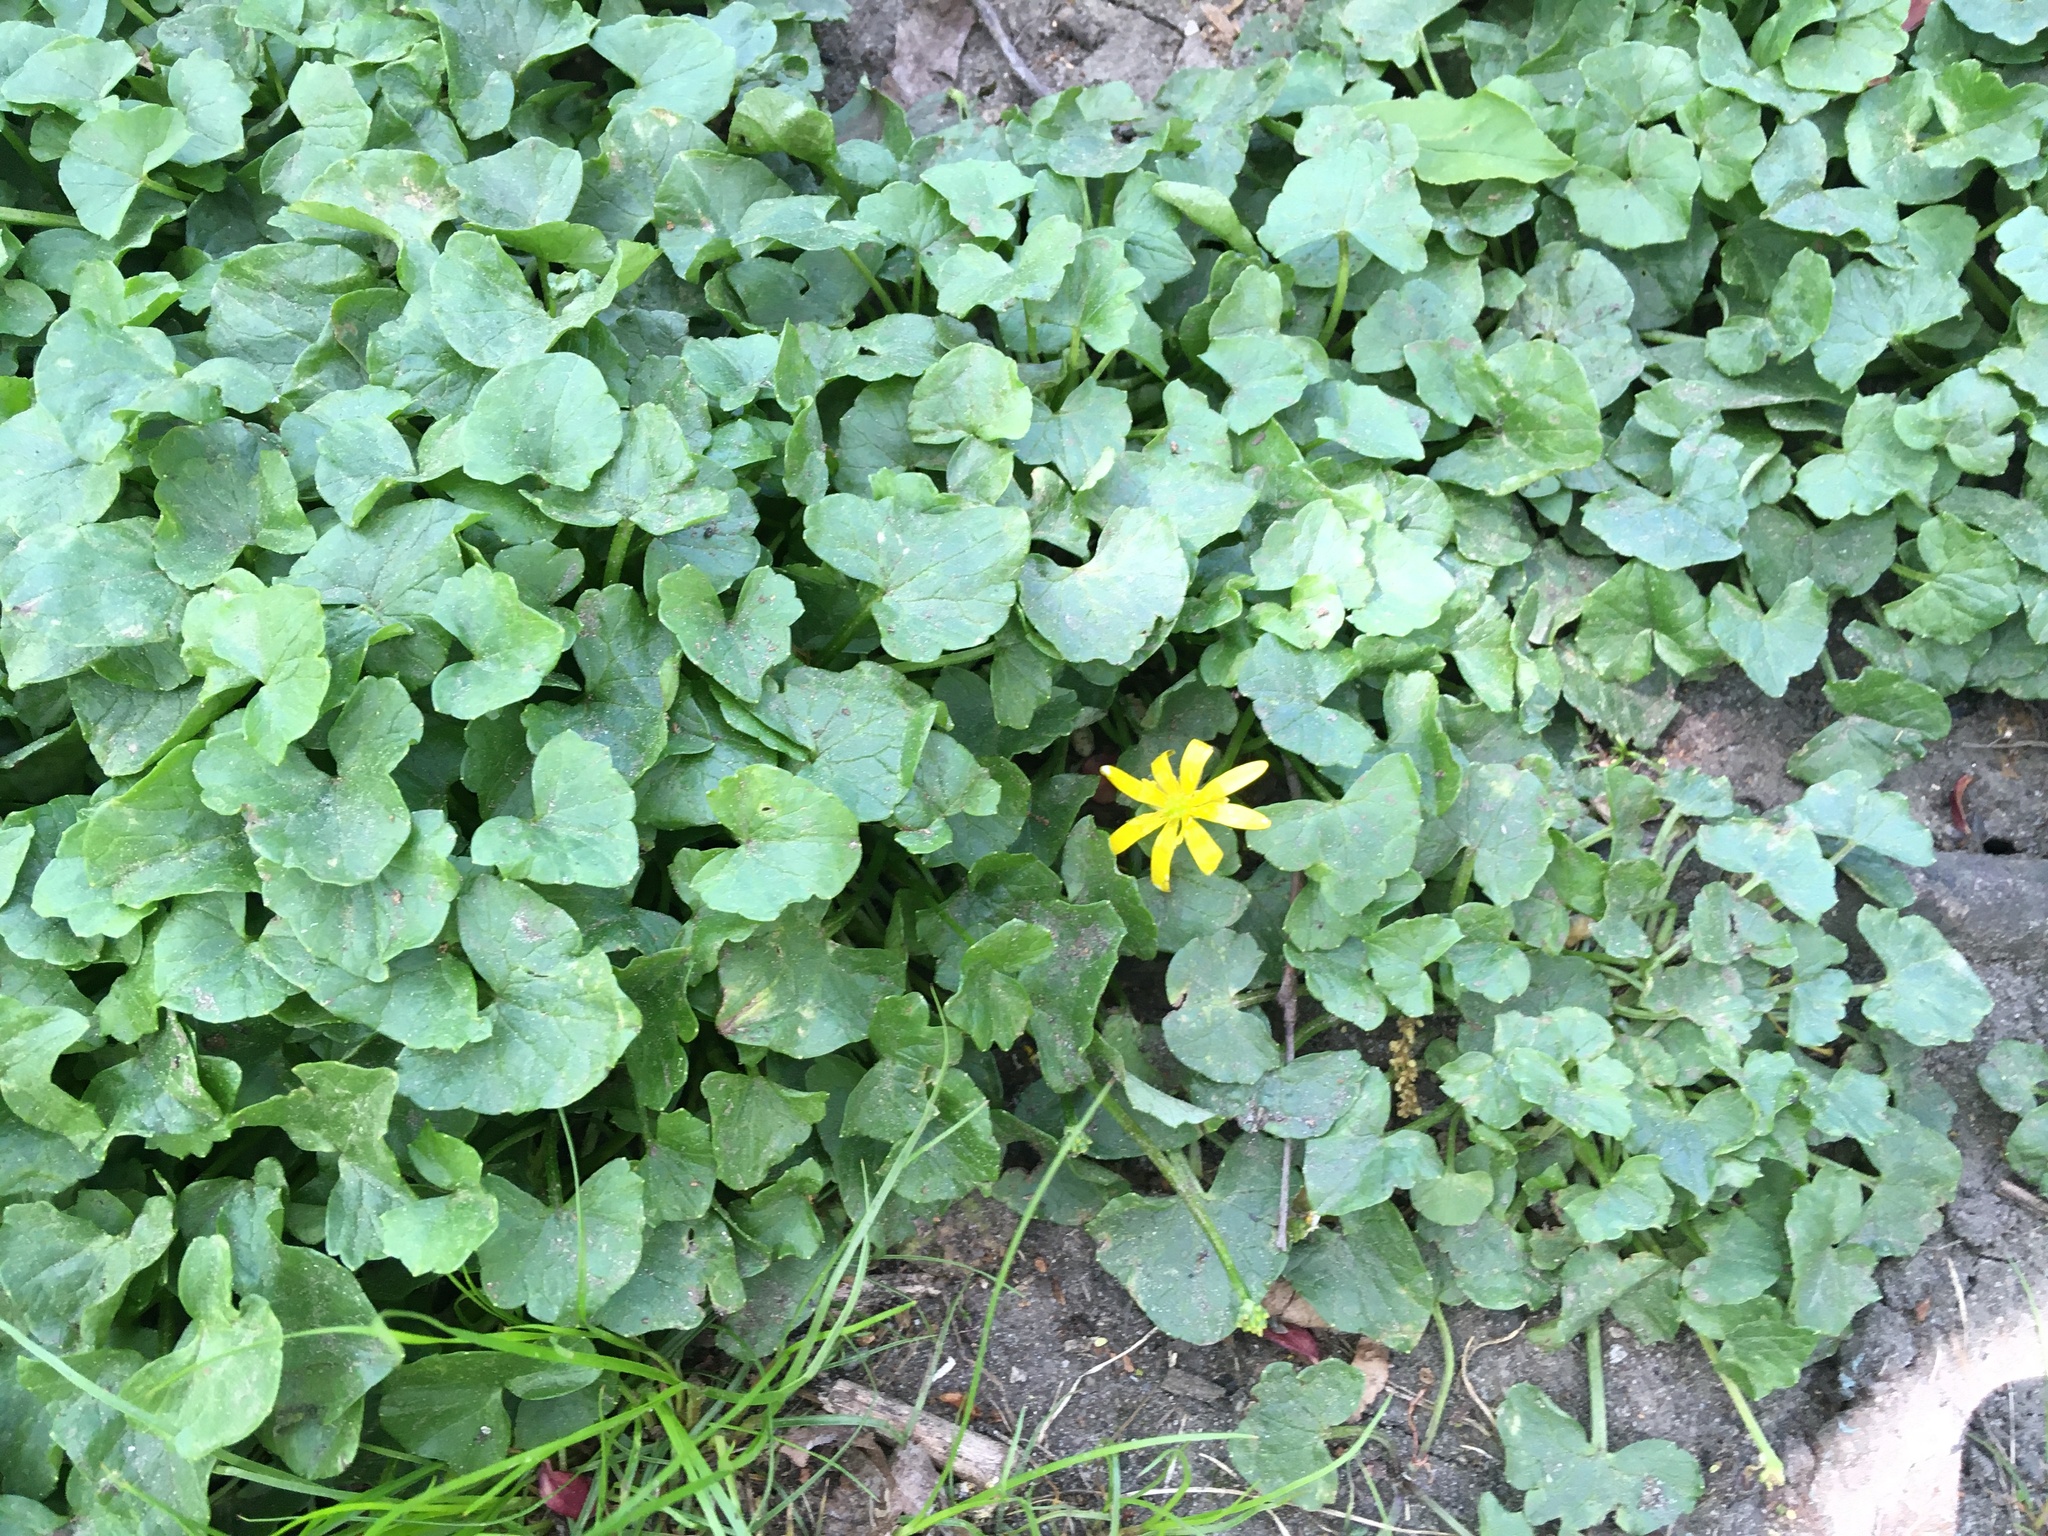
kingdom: Plantae
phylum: Tracheophyta
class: Magnoliopsida
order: Ranunculales
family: Ranunculaceae
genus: Ficaria
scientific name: Ficaria verna
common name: Lesser celandine
